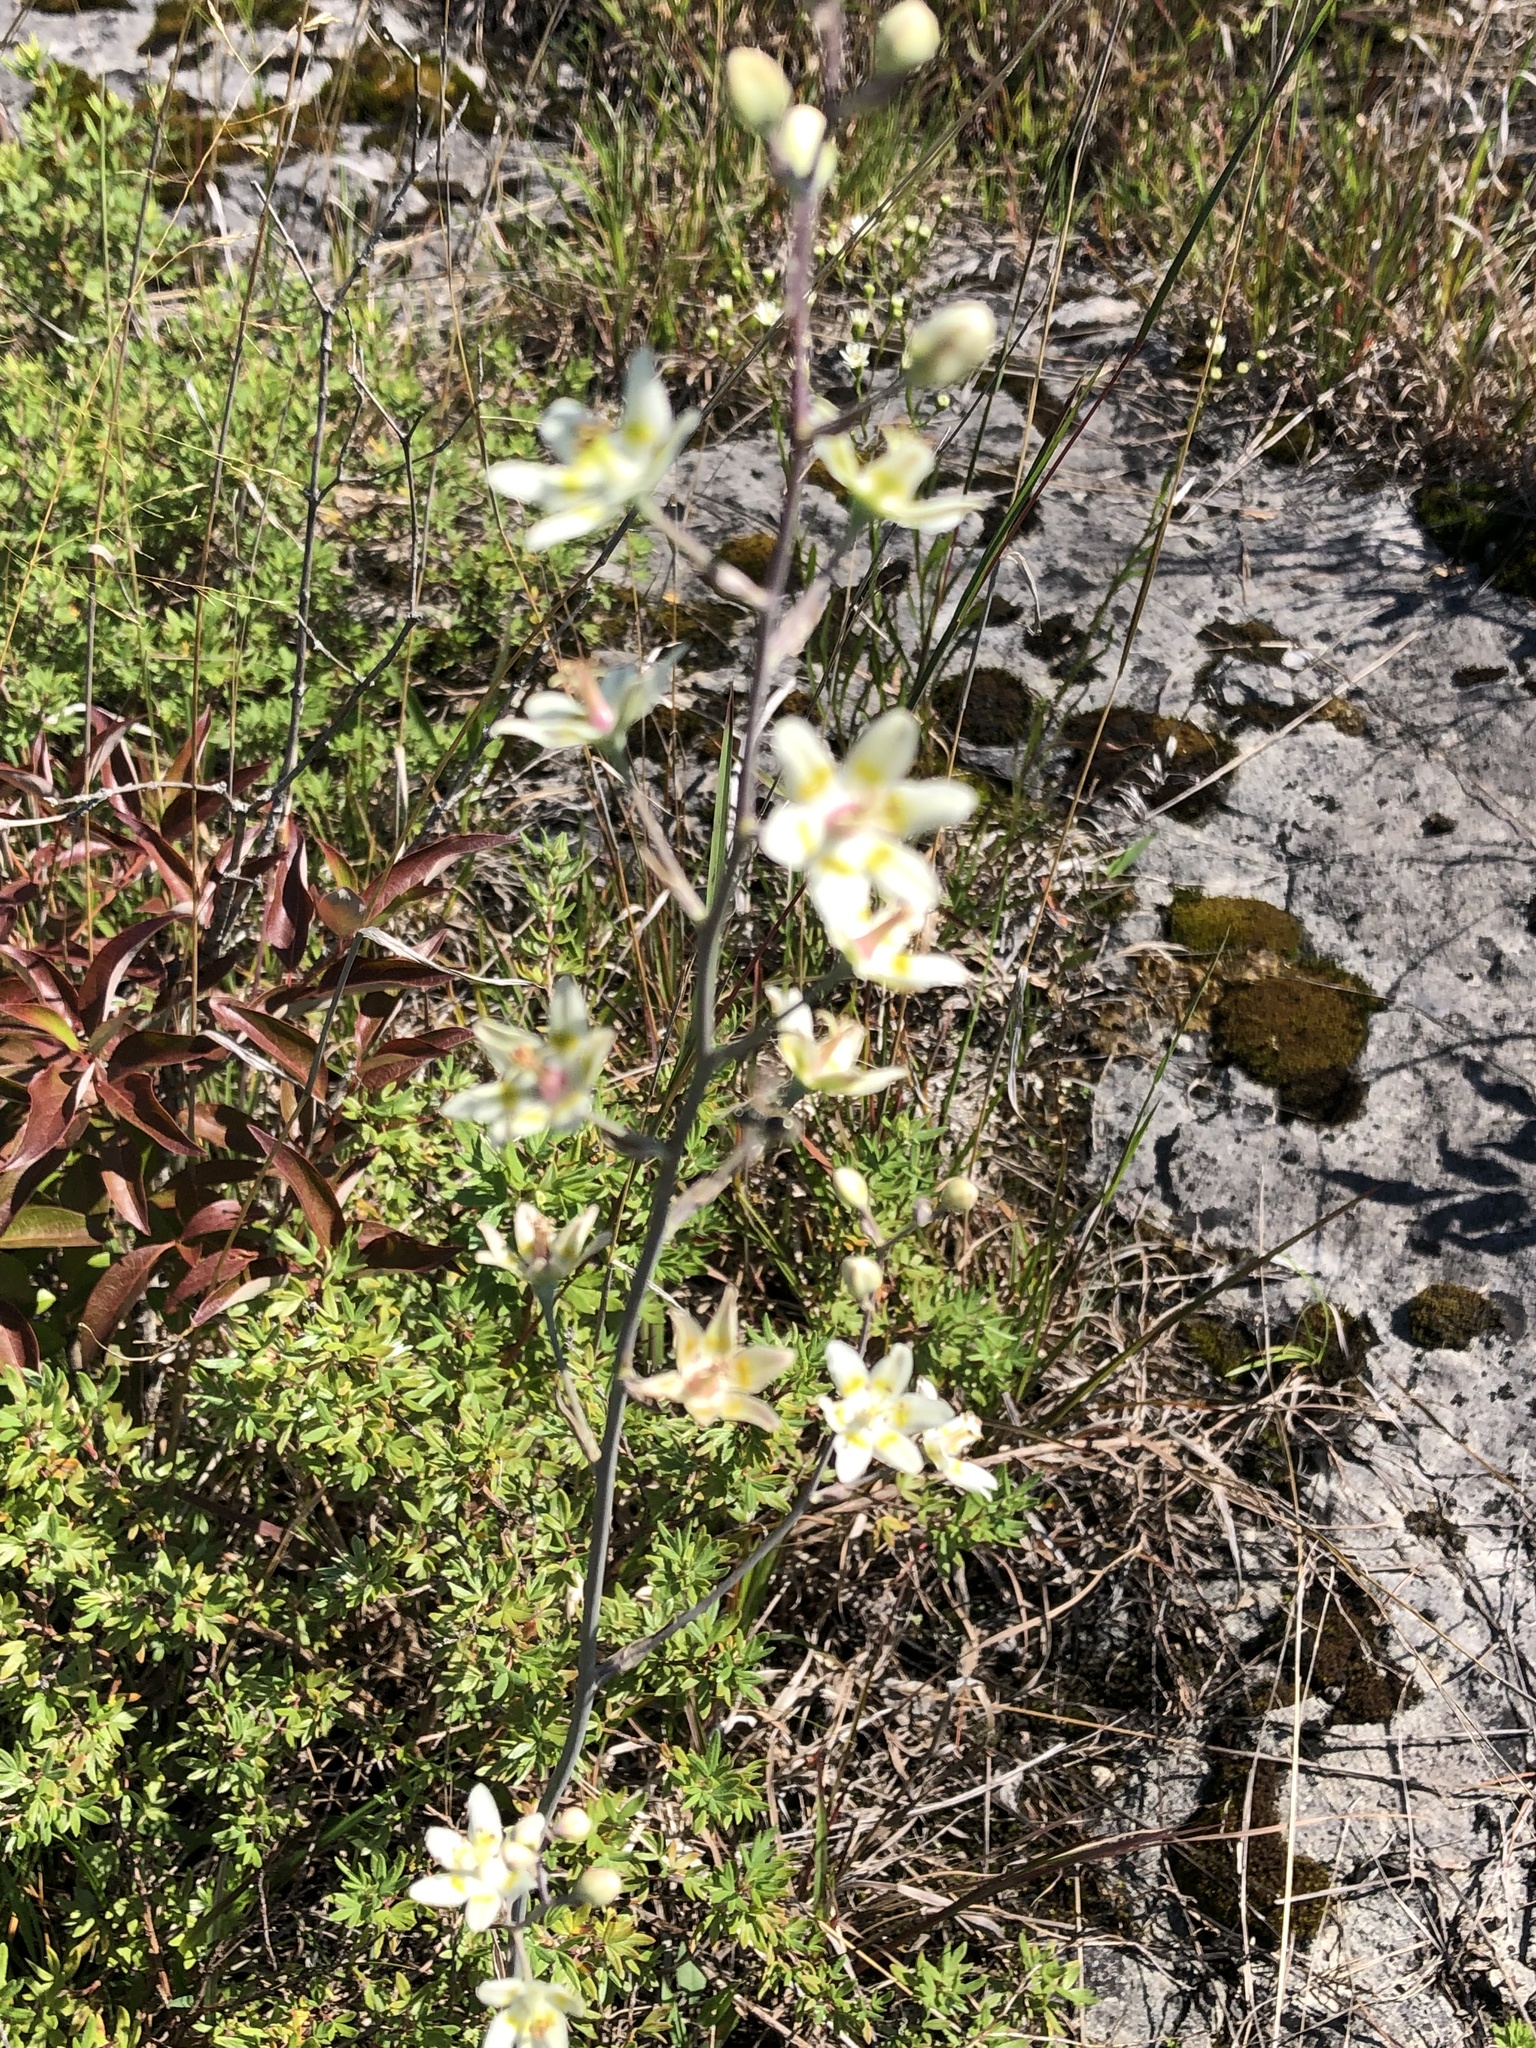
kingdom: Plantae
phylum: Tracheophyta
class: Liliopsida
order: Liliales
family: Melanthiaceae
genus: Anticlea
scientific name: Anticlea elegans
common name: Mountain death camas
